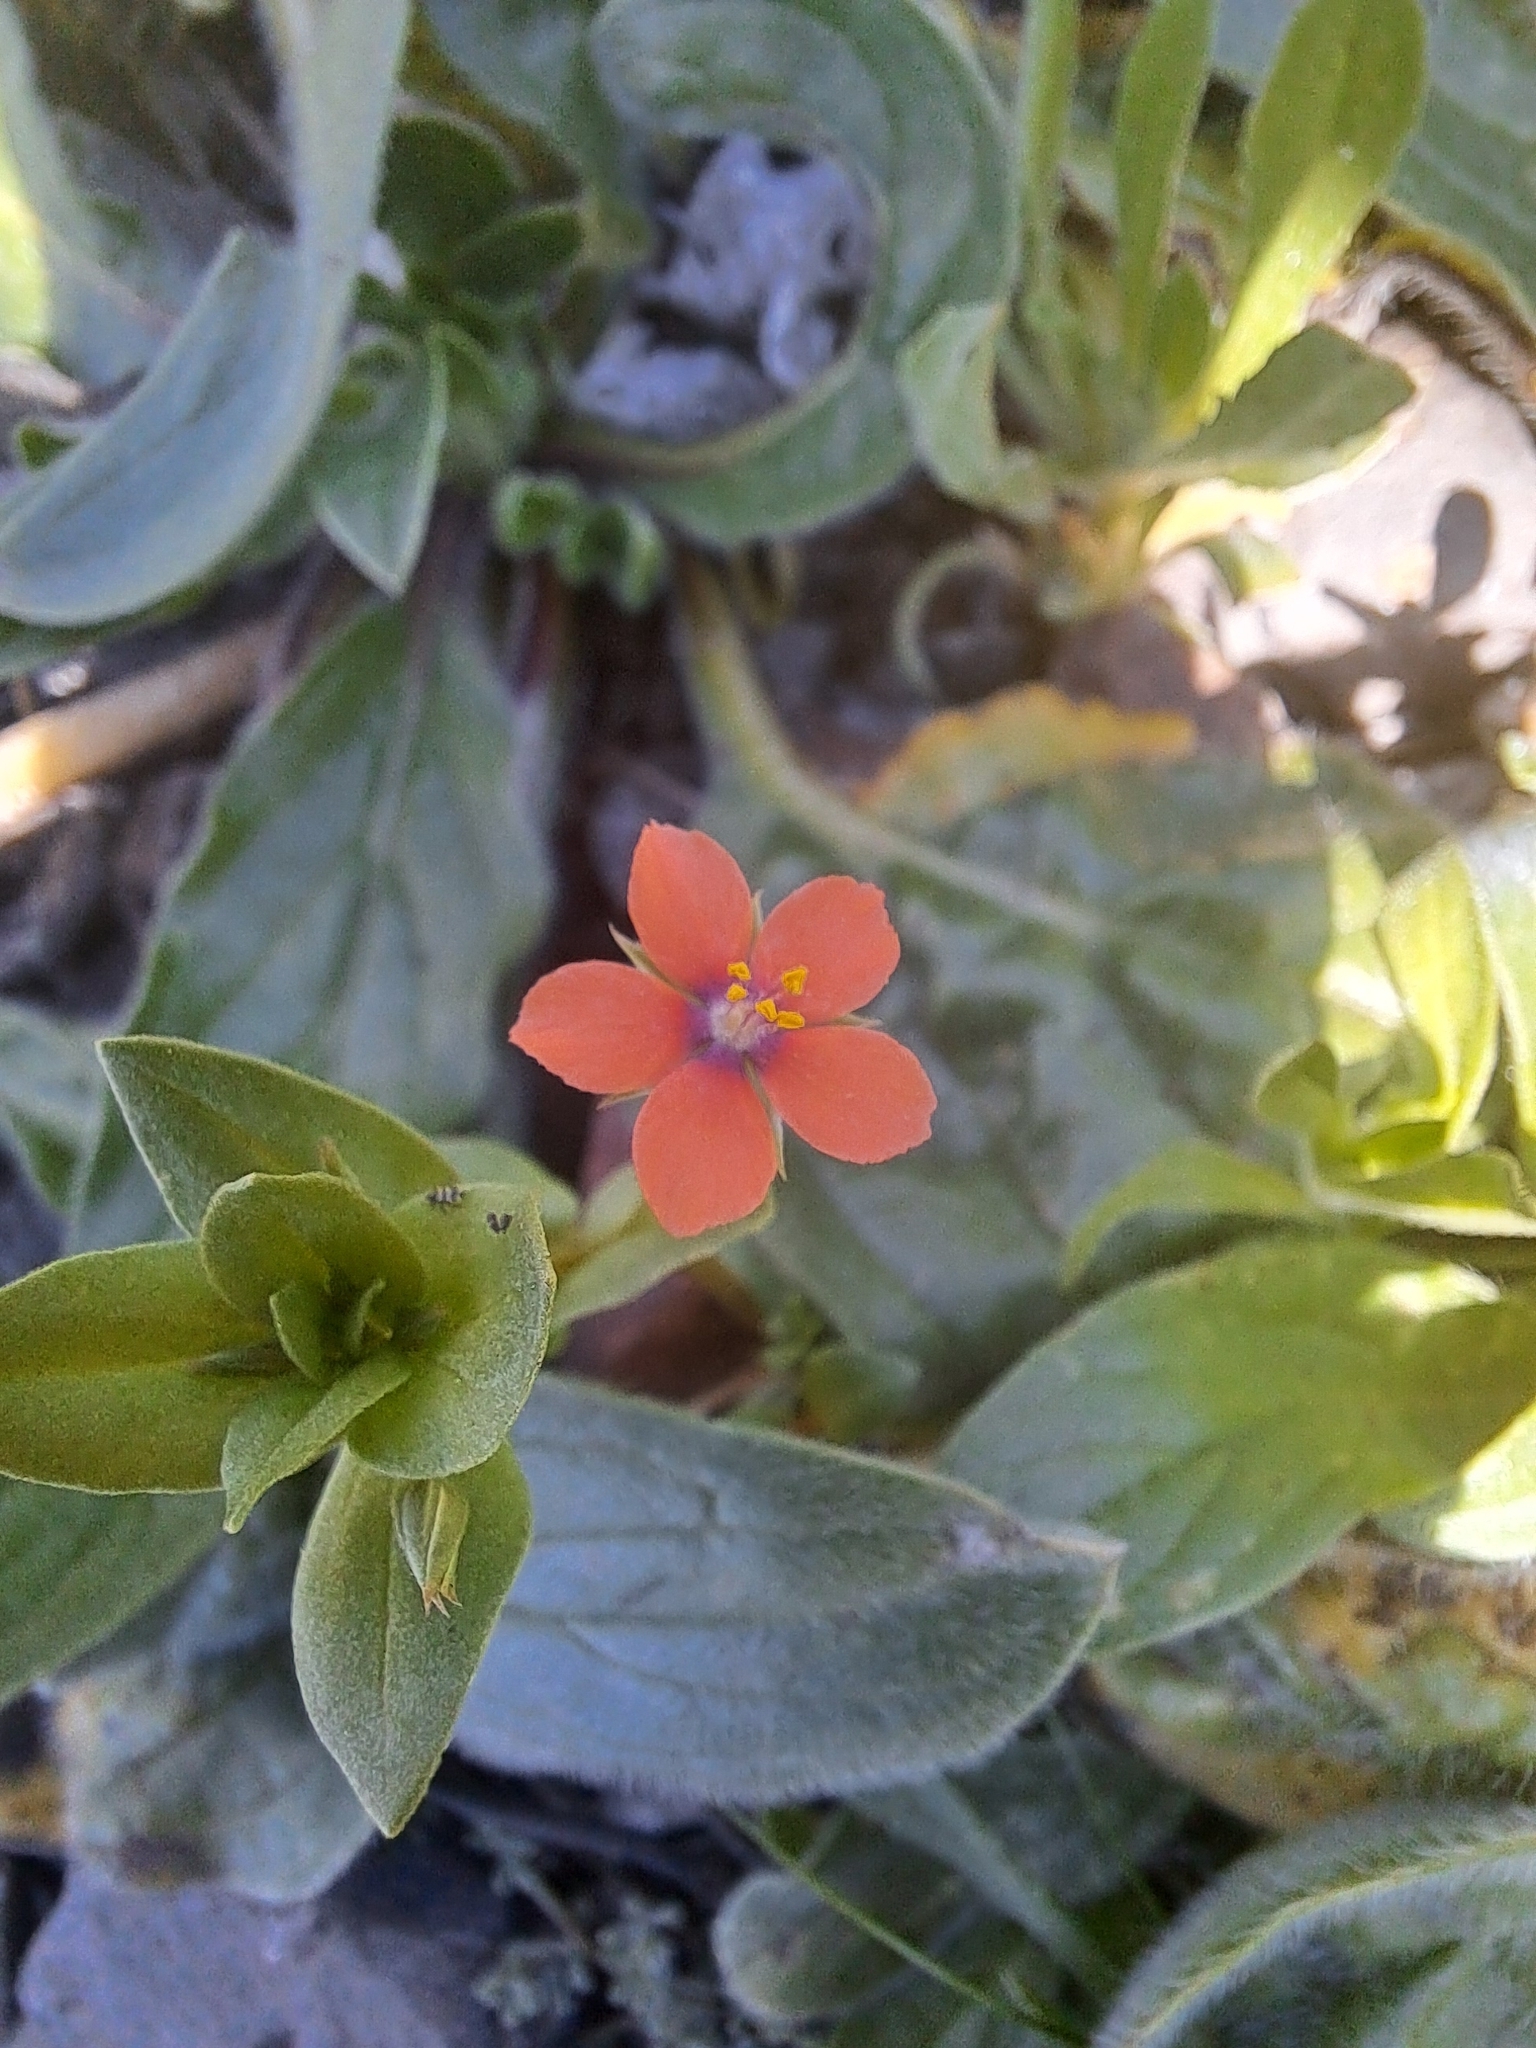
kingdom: Plantae
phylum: Tracheophyta
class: Magnoliopsida
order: Ericales
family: Primulaceae
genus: Lysimachia
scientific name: Lysimachia arvensis
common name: Scarlet pimpernel
